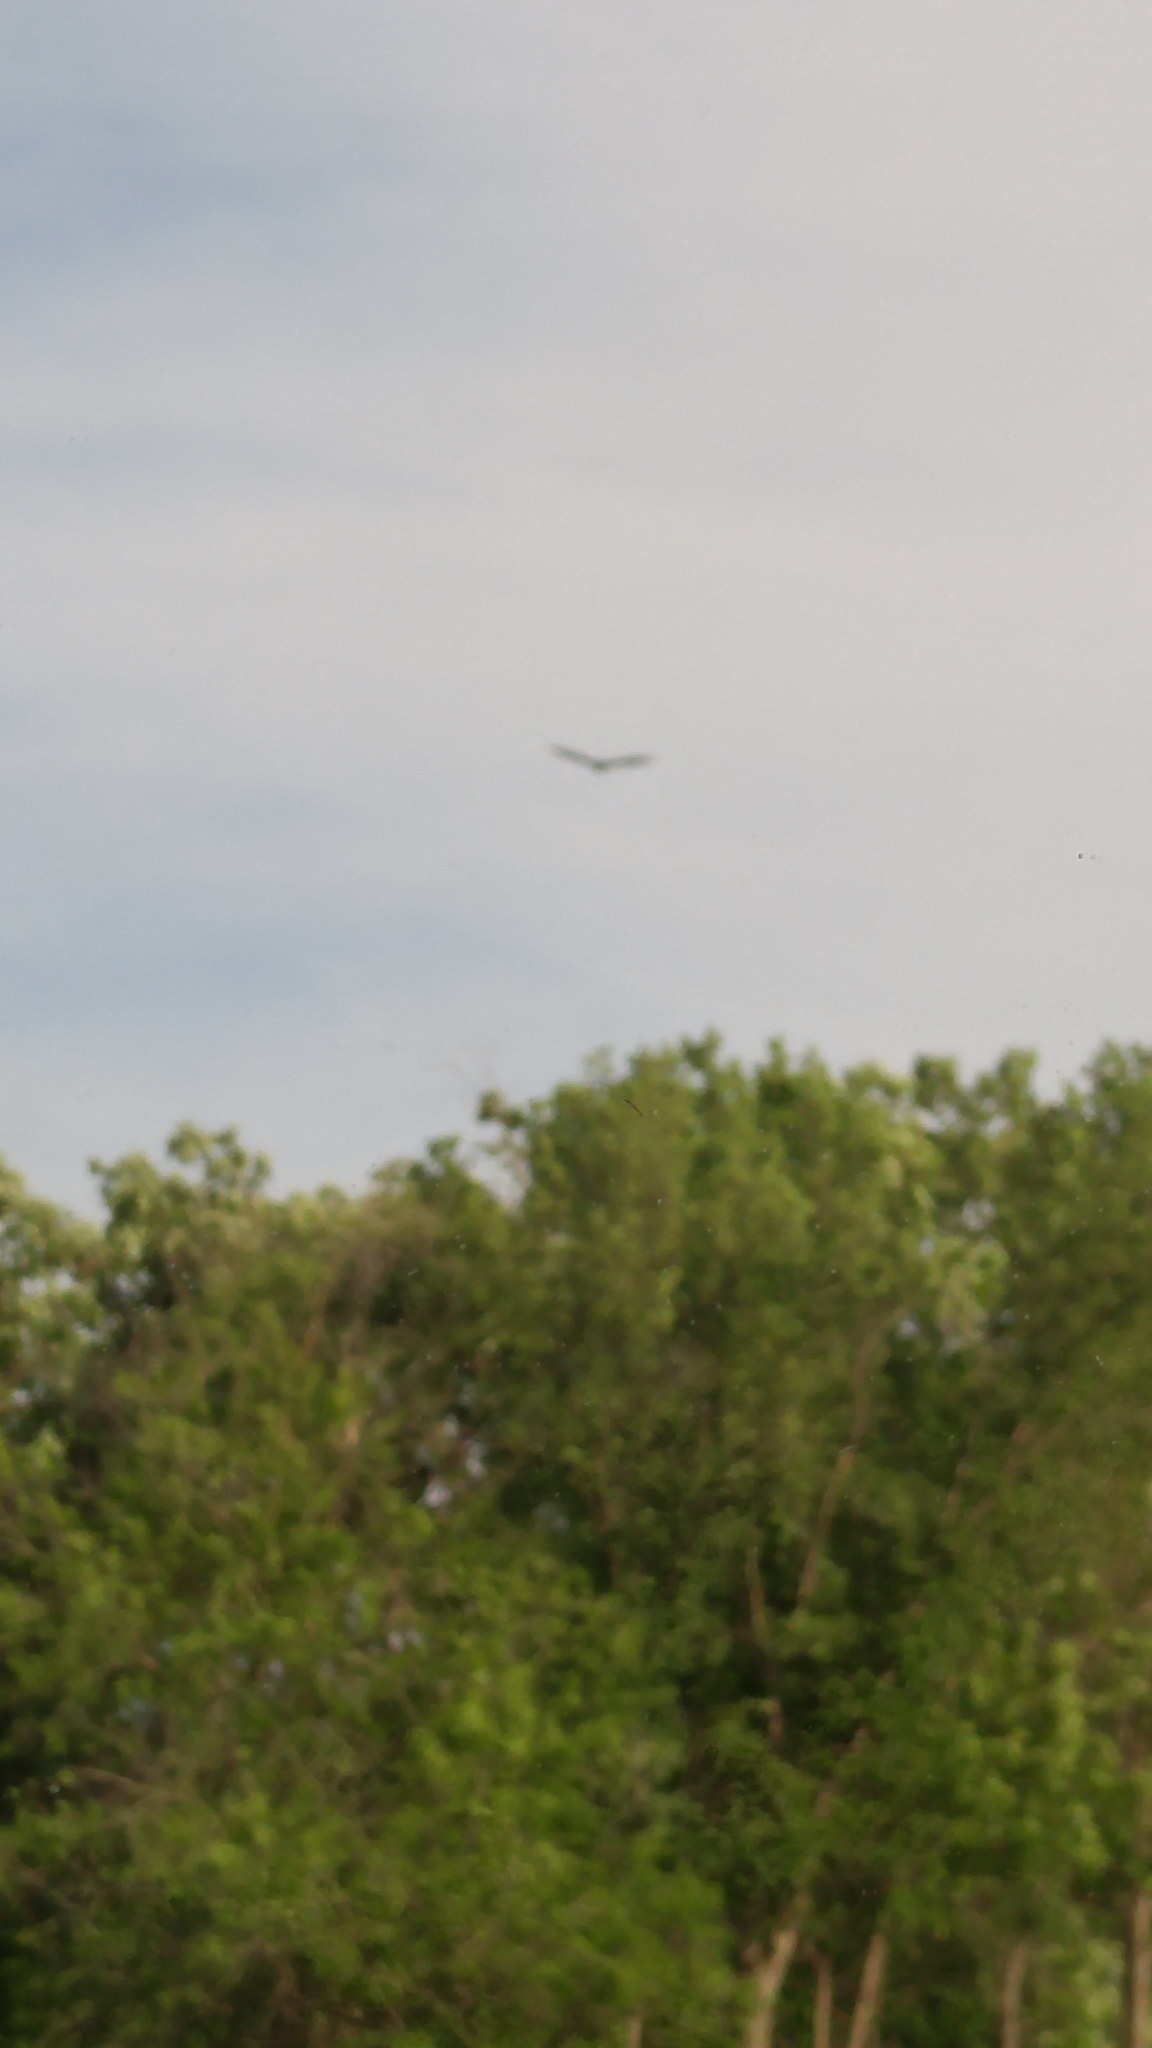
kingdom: Animalia
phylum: Chordata
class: Aves
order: Accipitriformes
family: Cathartidae
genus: Cathartes
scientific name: Cathartes aura
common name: Turkey vulture
